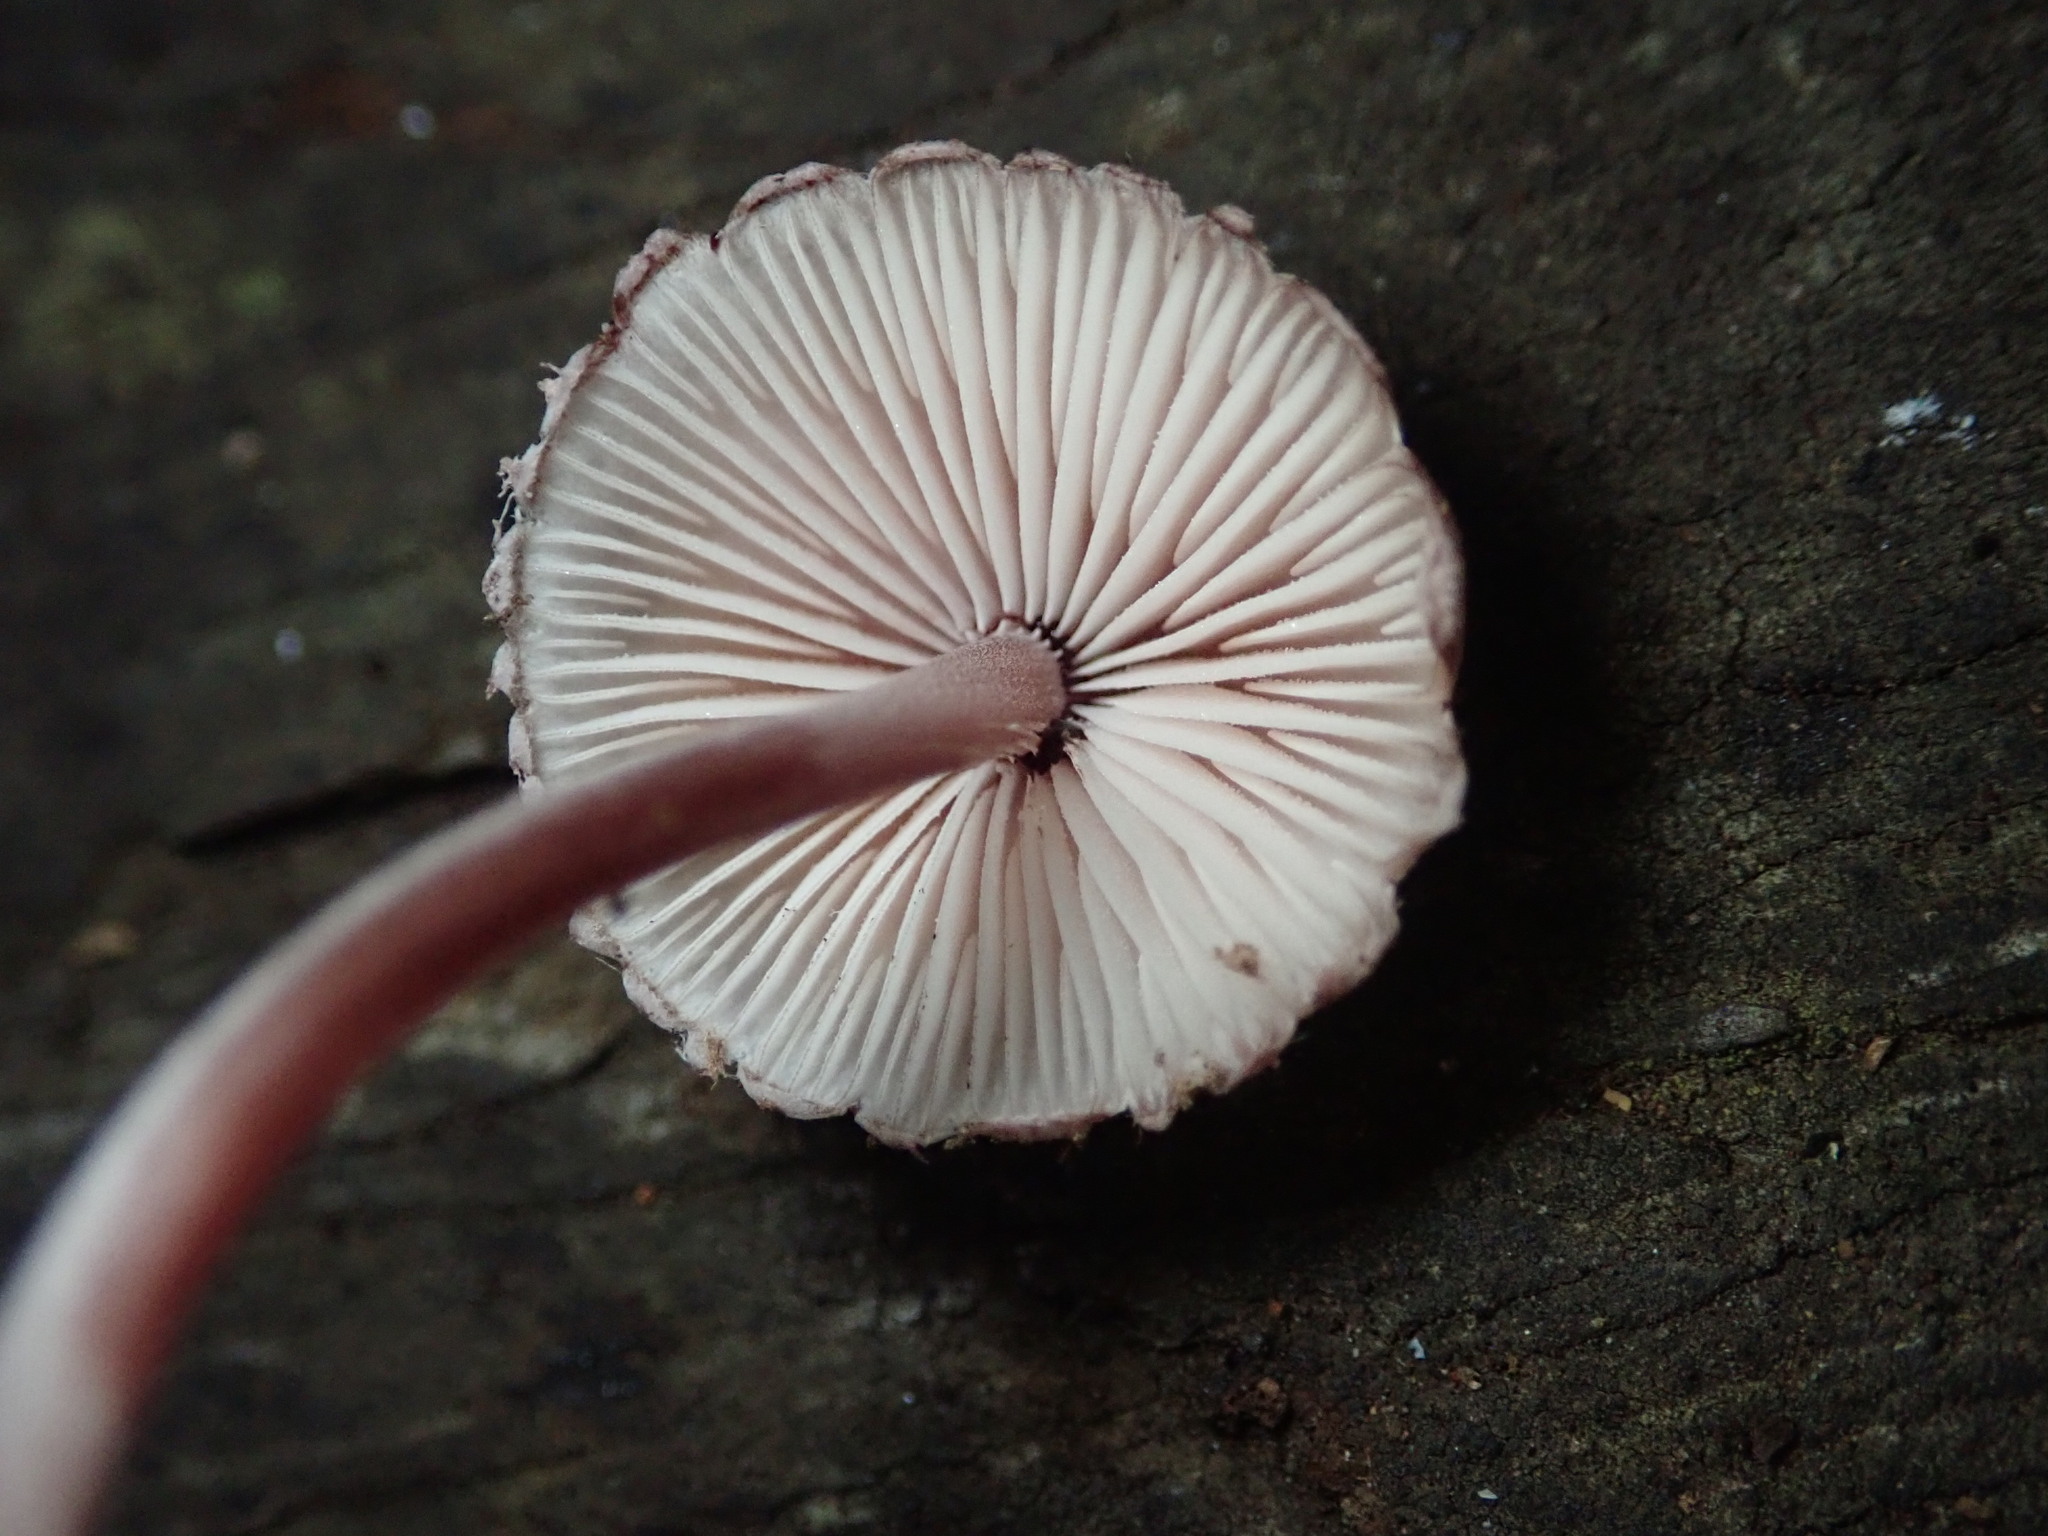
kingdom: Fungi
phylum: Basidiomycota
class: Agaricomycetes
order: Agaricales
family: Mycenaceae
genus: Mycena
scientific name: Mycena haematopus
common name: Burgundydrop bonnet
